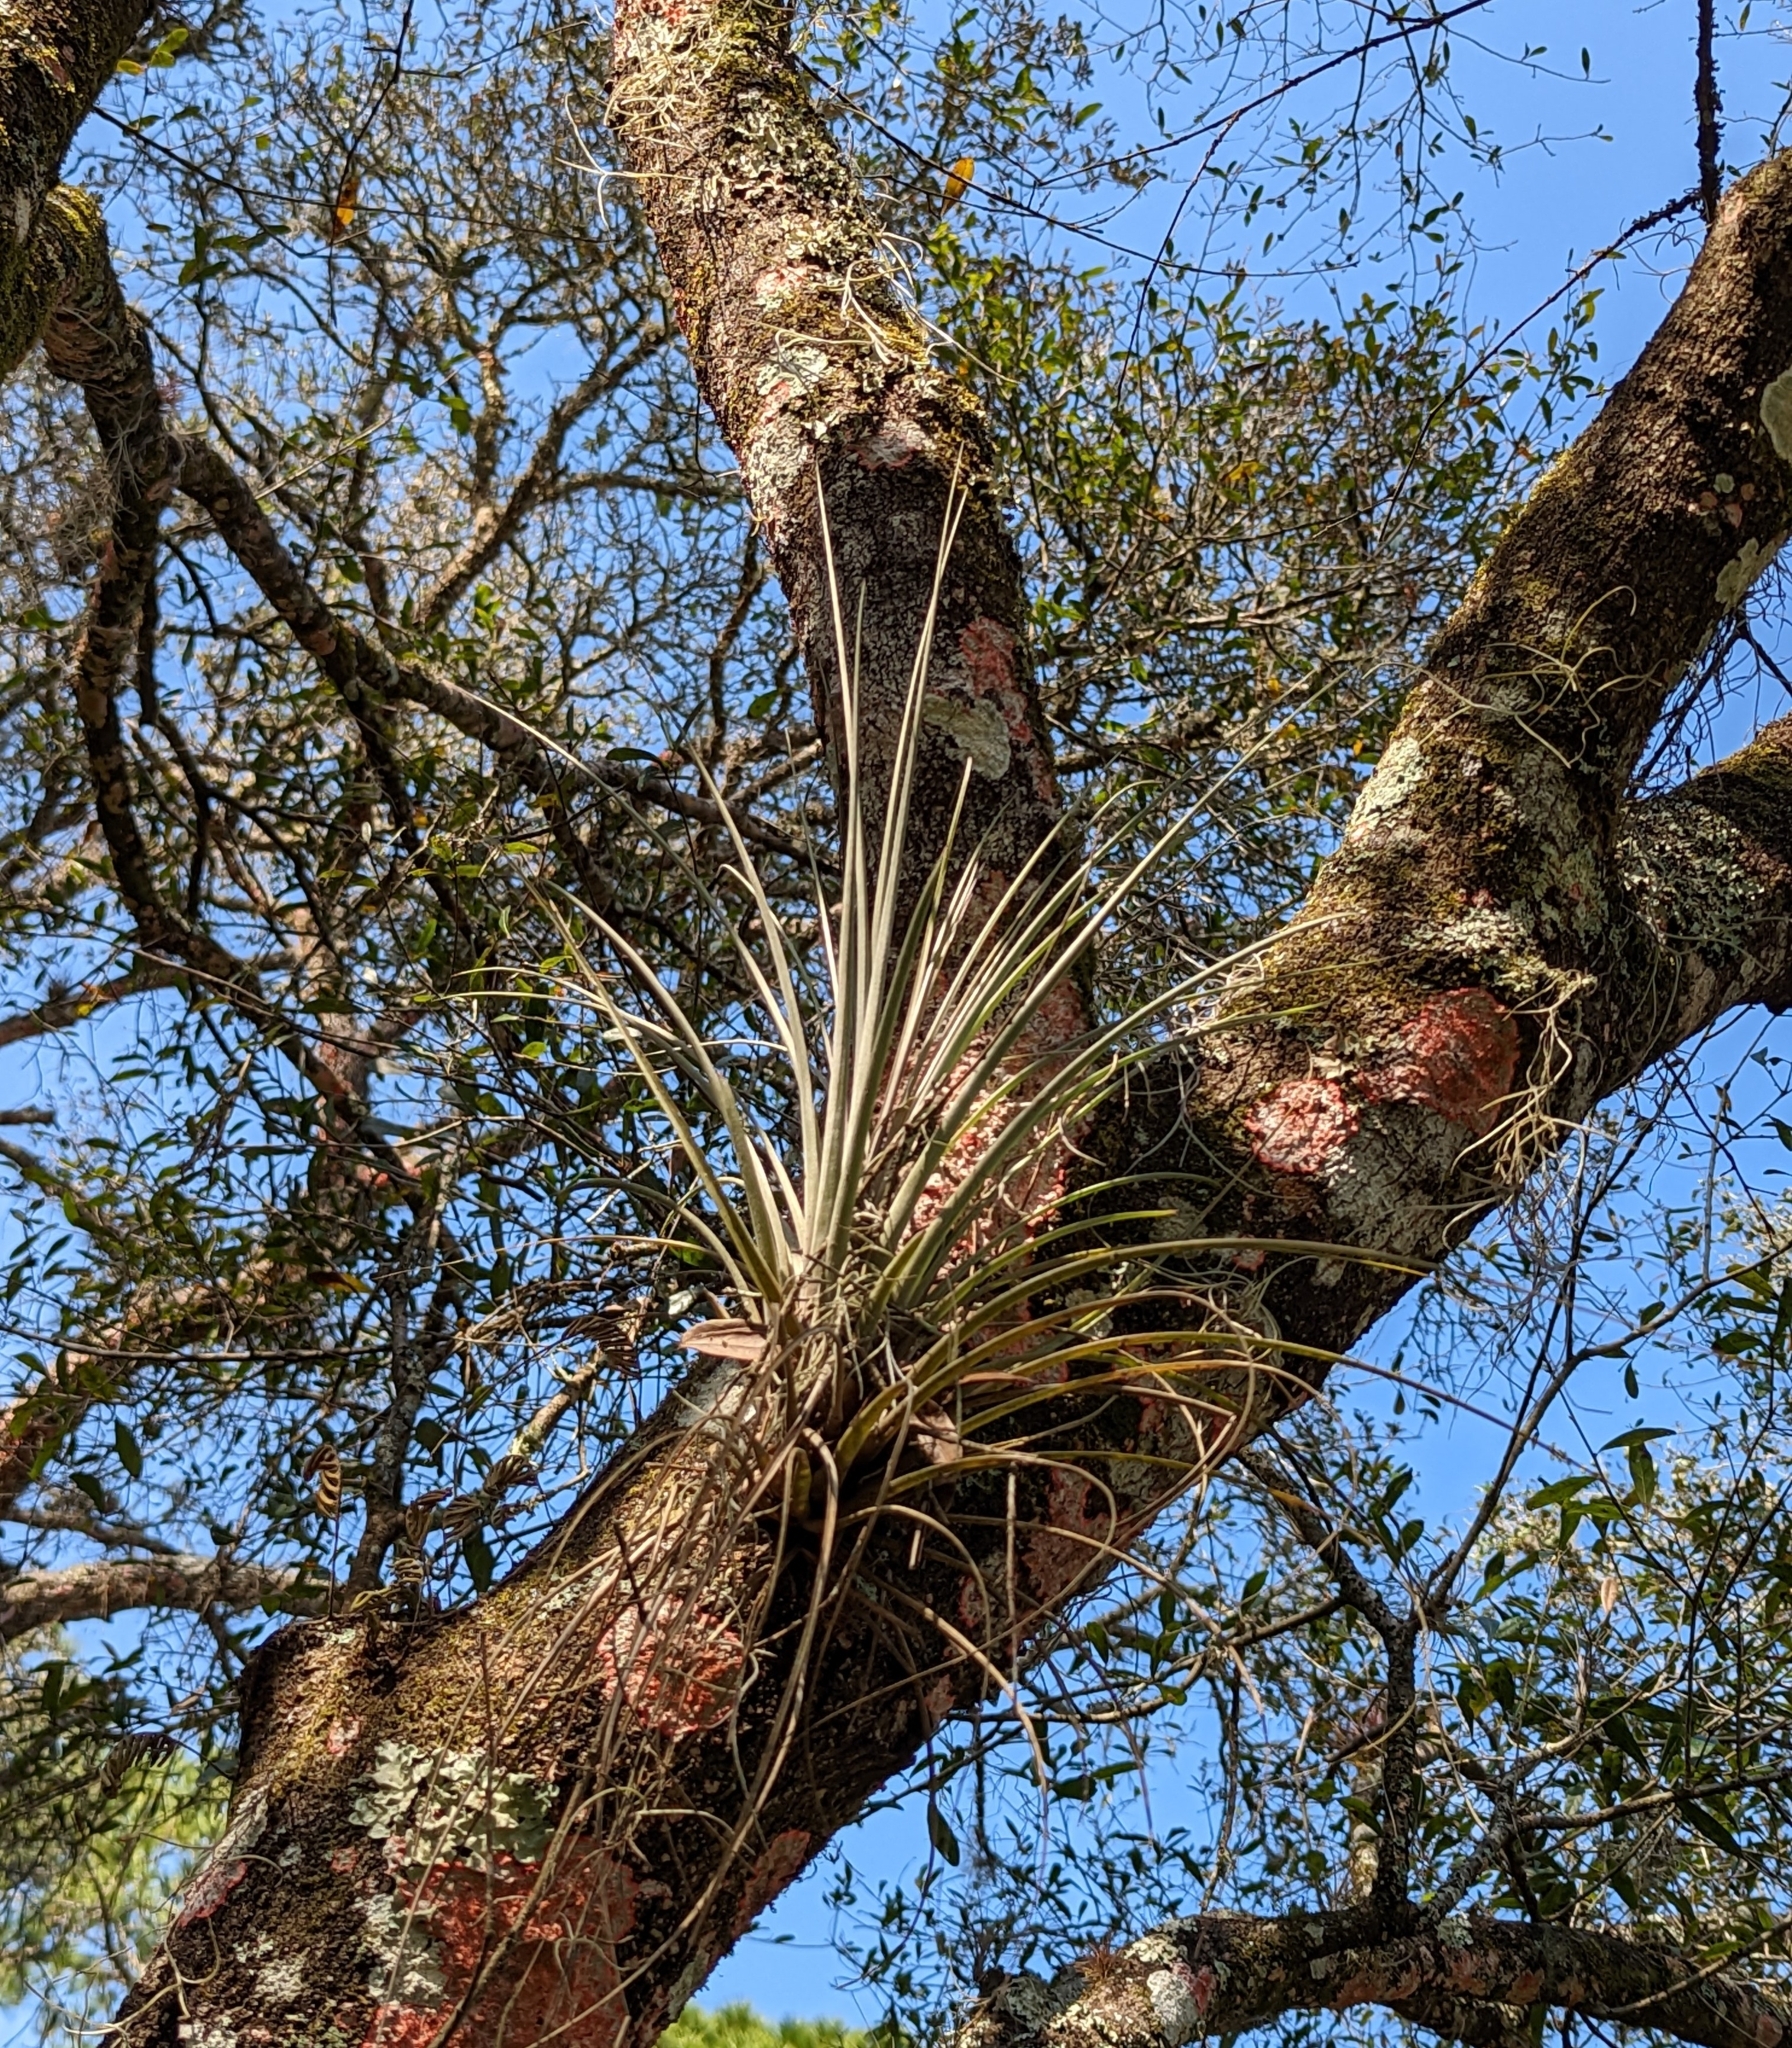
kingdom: Plantae
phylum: Tracheophyta
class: Liliopsida
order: Poales
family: Bromeliaceae
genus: Tillandsia
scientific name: Tillandsia simulata
